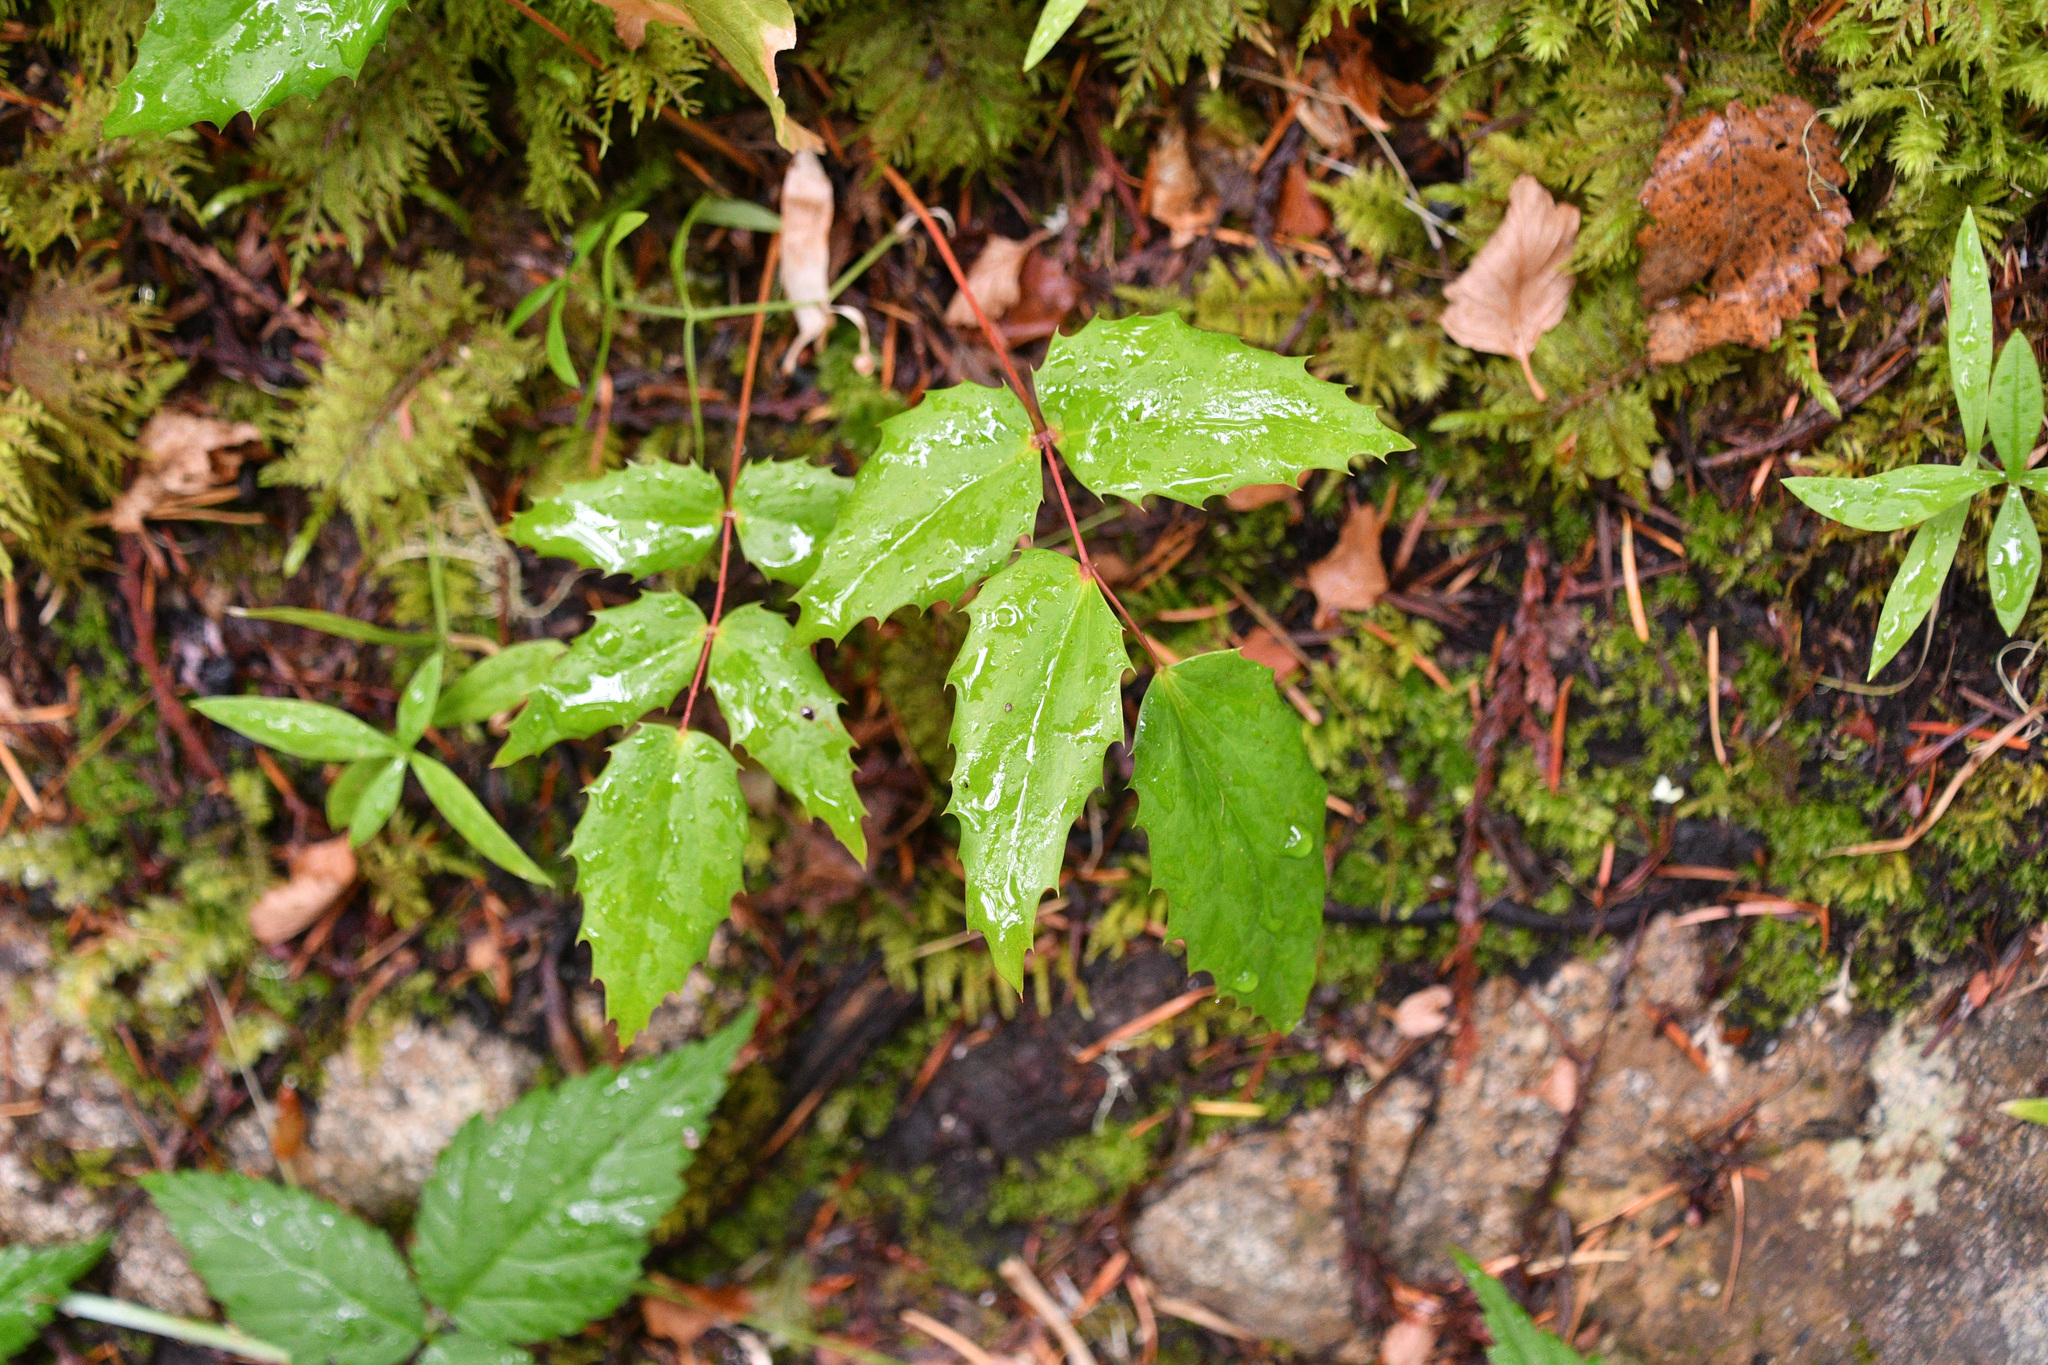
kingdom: Plantae
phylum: Tracheophyta
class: Magnoliopsida
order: Ranunculales
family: Berberidaceae
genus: Mahonia
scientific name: Mahonia nervosa
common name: Cascade oregon-grape
